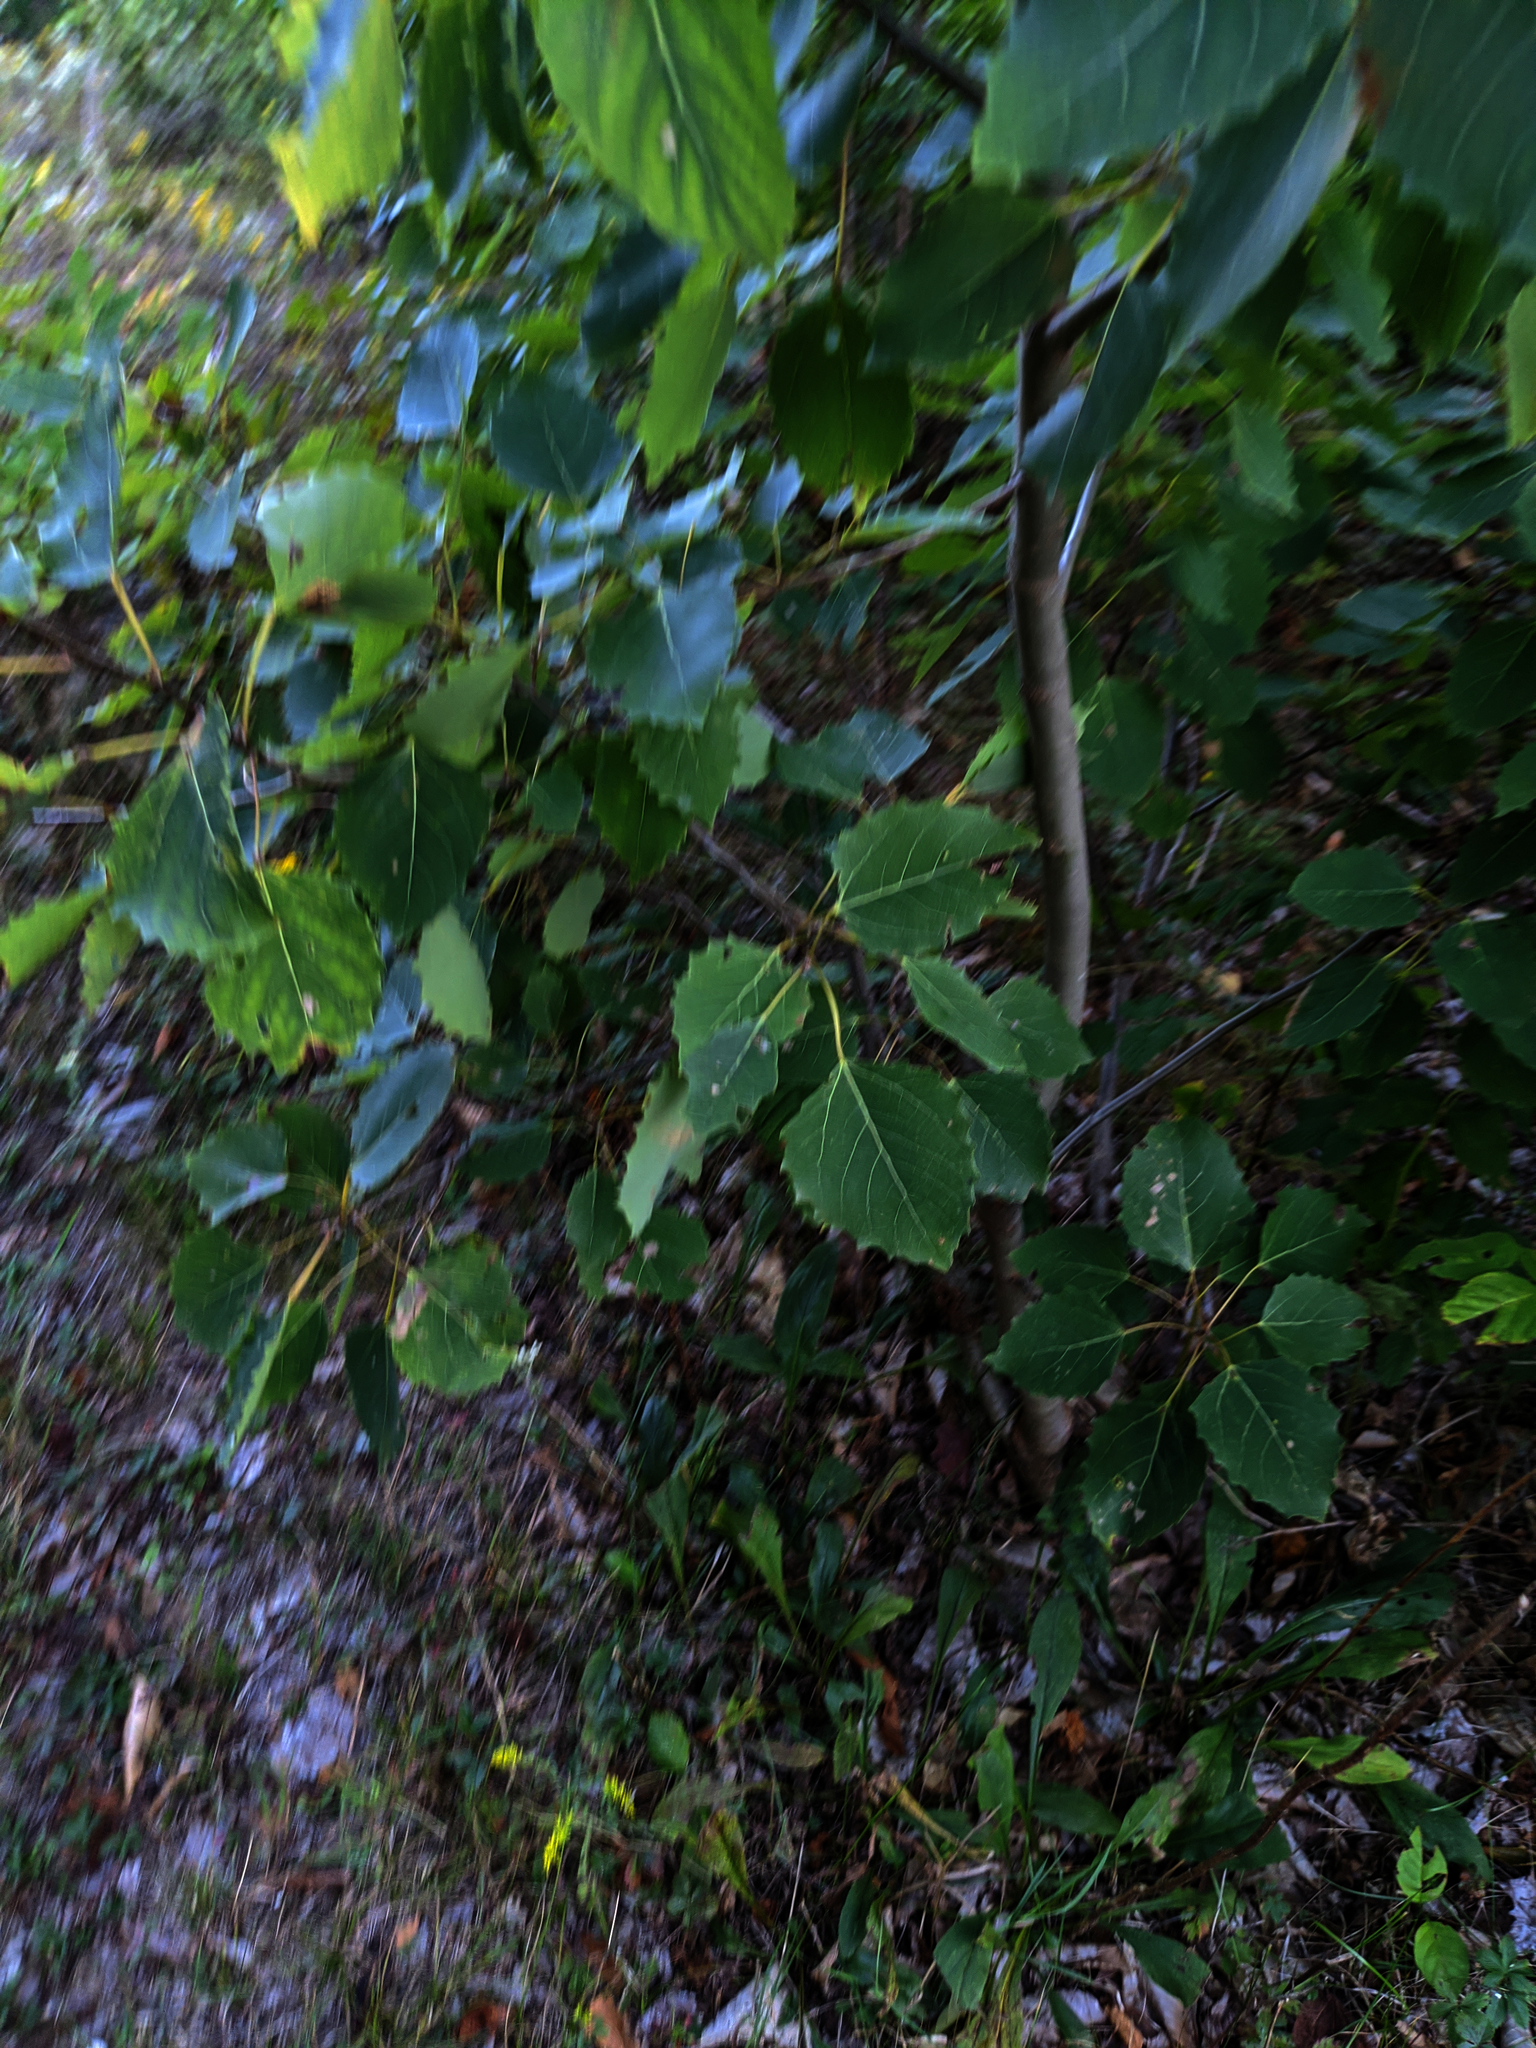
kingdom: Plantae
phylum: Tracheophyta
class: Magnoliopsida
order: Malpighiales
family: Salicaceae
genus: Populus
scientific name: Populus grandidentata
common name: Bigtooth aspen
